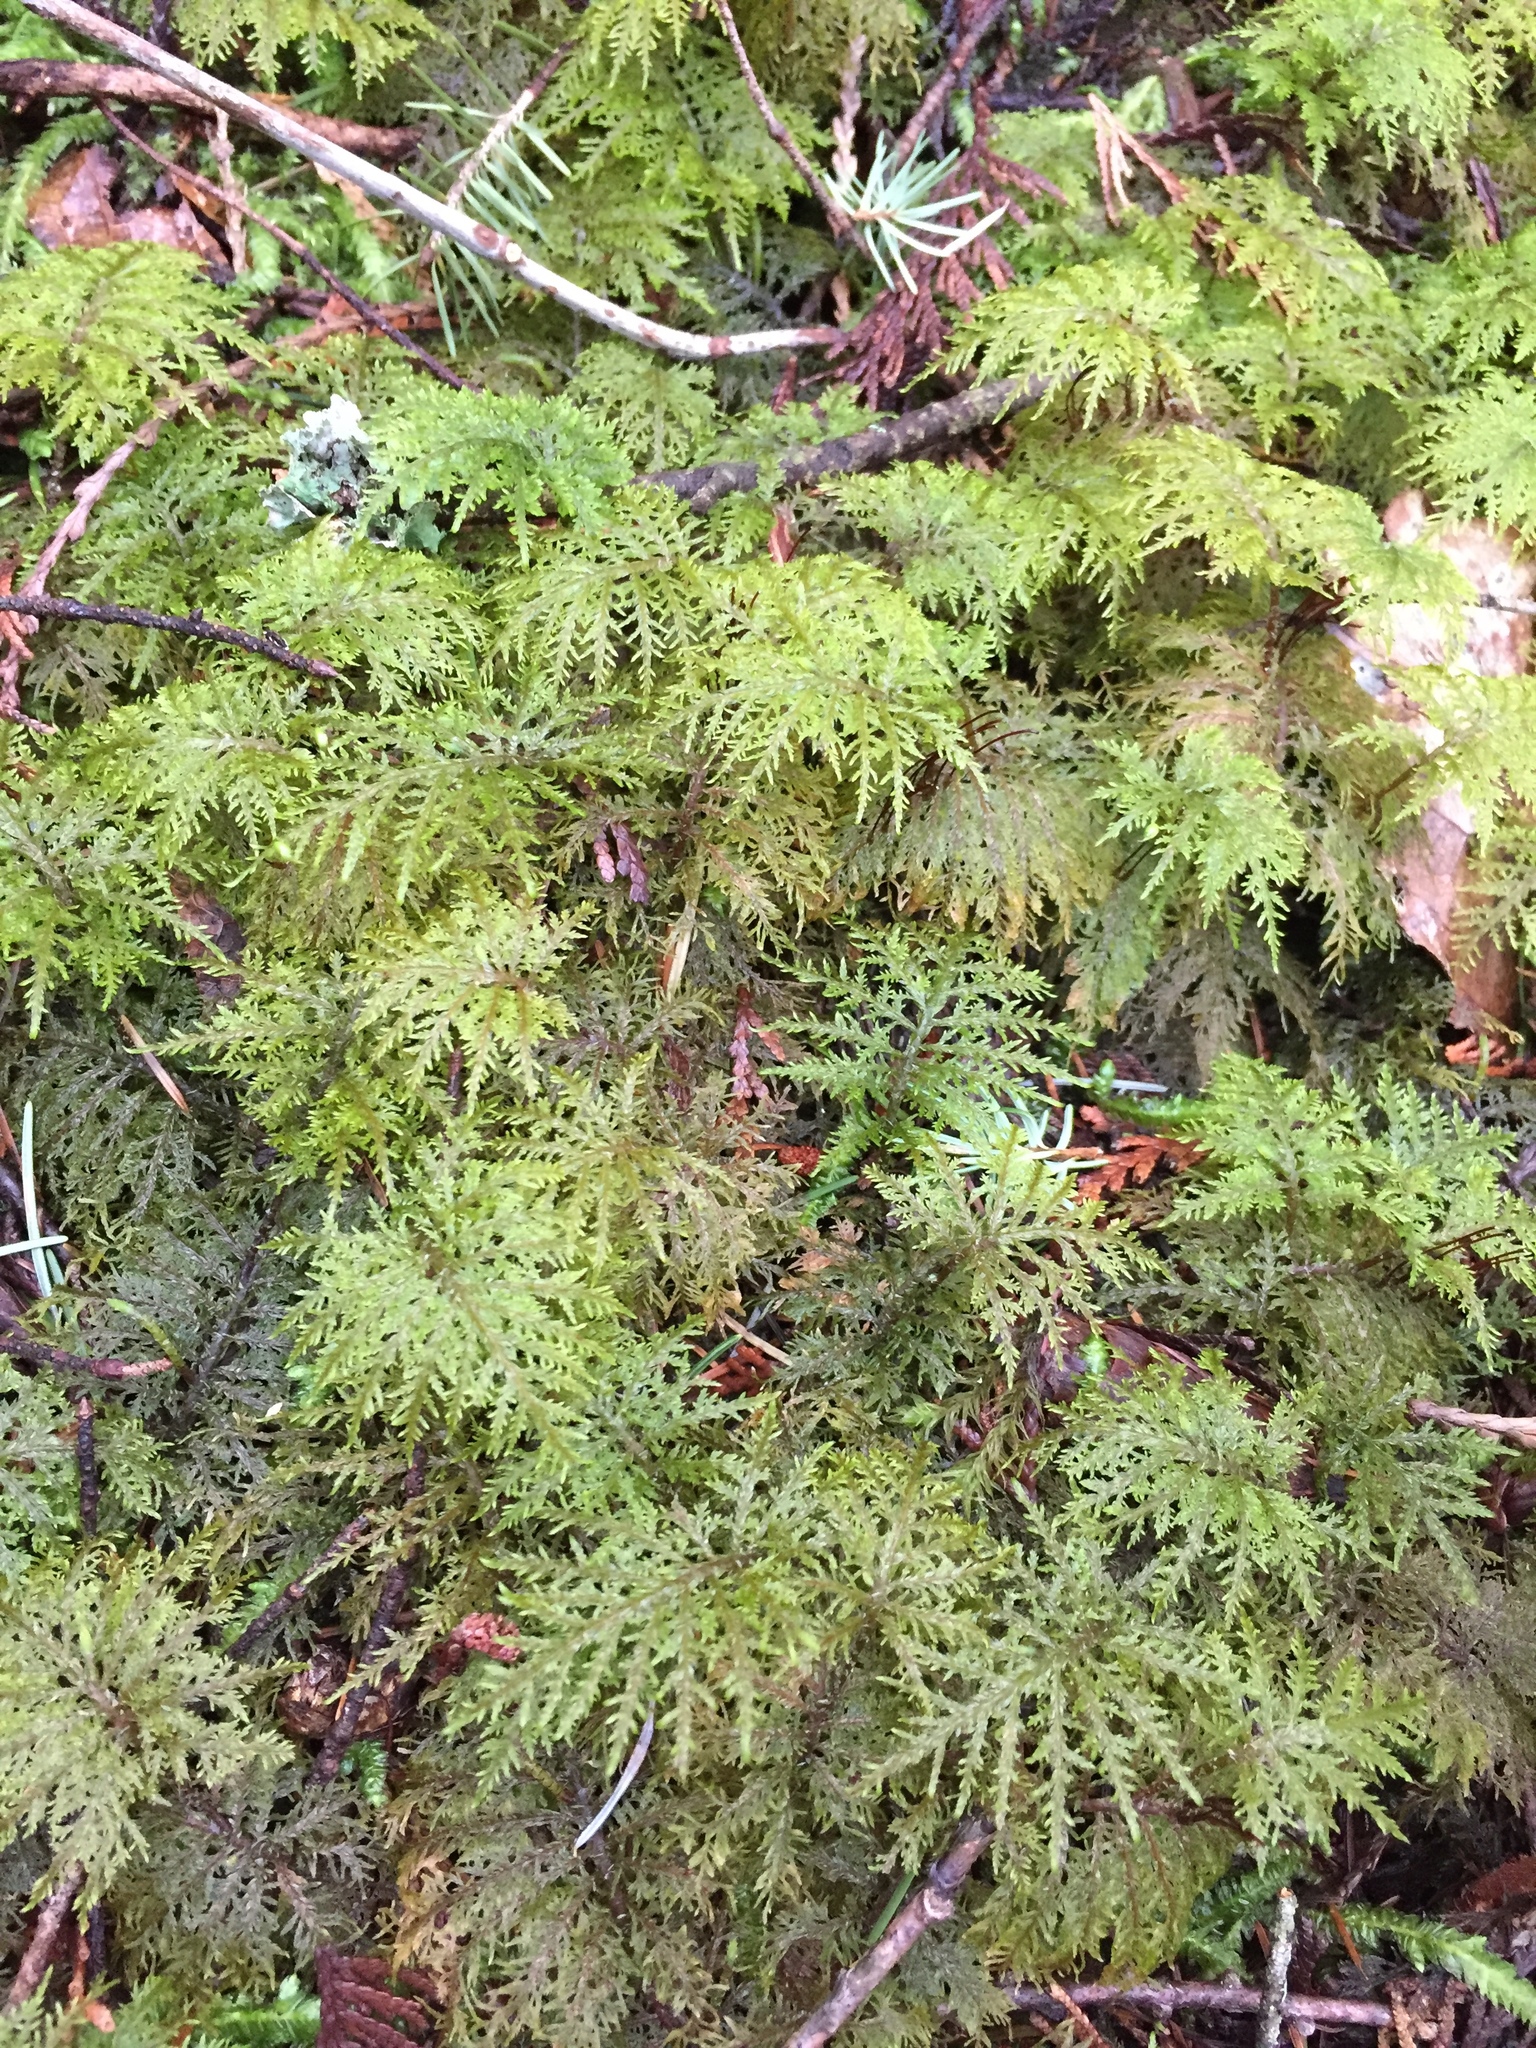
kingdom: Plantae
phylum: Bryophyta
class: Bryopsida
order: Hypnales
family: Hylocomiaceae
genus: Hylocomium
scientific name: Hylocomium splendens
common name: Stairstep moss
